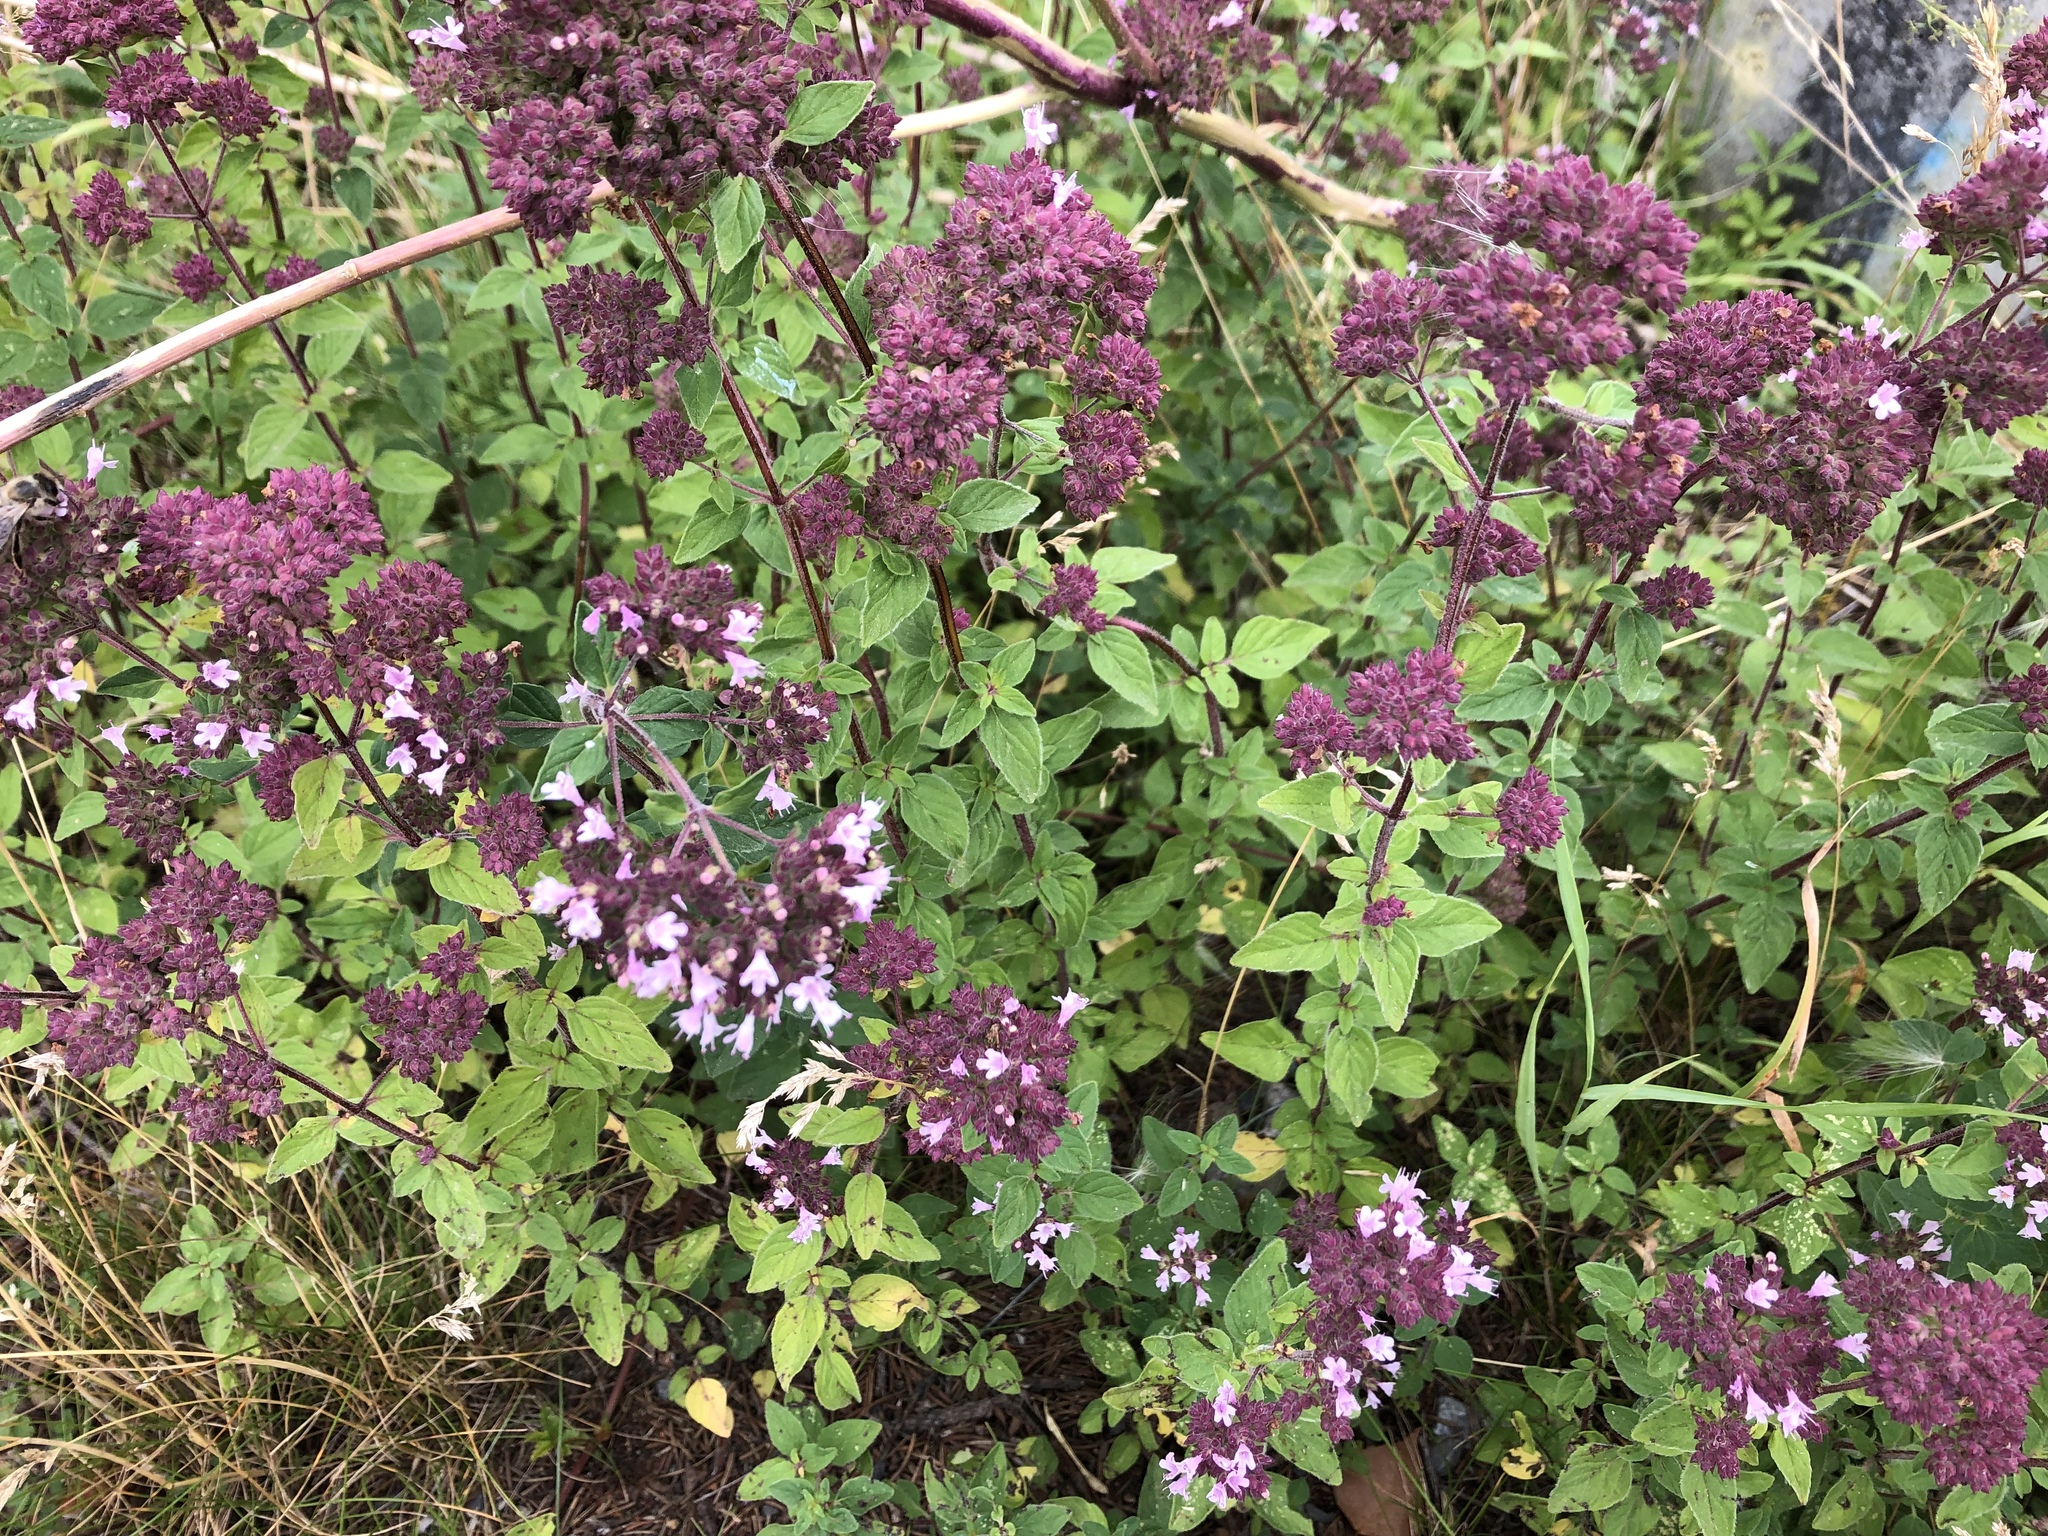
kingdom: Plantae
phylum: Tracheophyta
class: Magnoliopsida
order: Lamiales
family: Lamiaceae
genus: Origanum
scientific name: Origanum vulgare
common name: Wild marjoram
